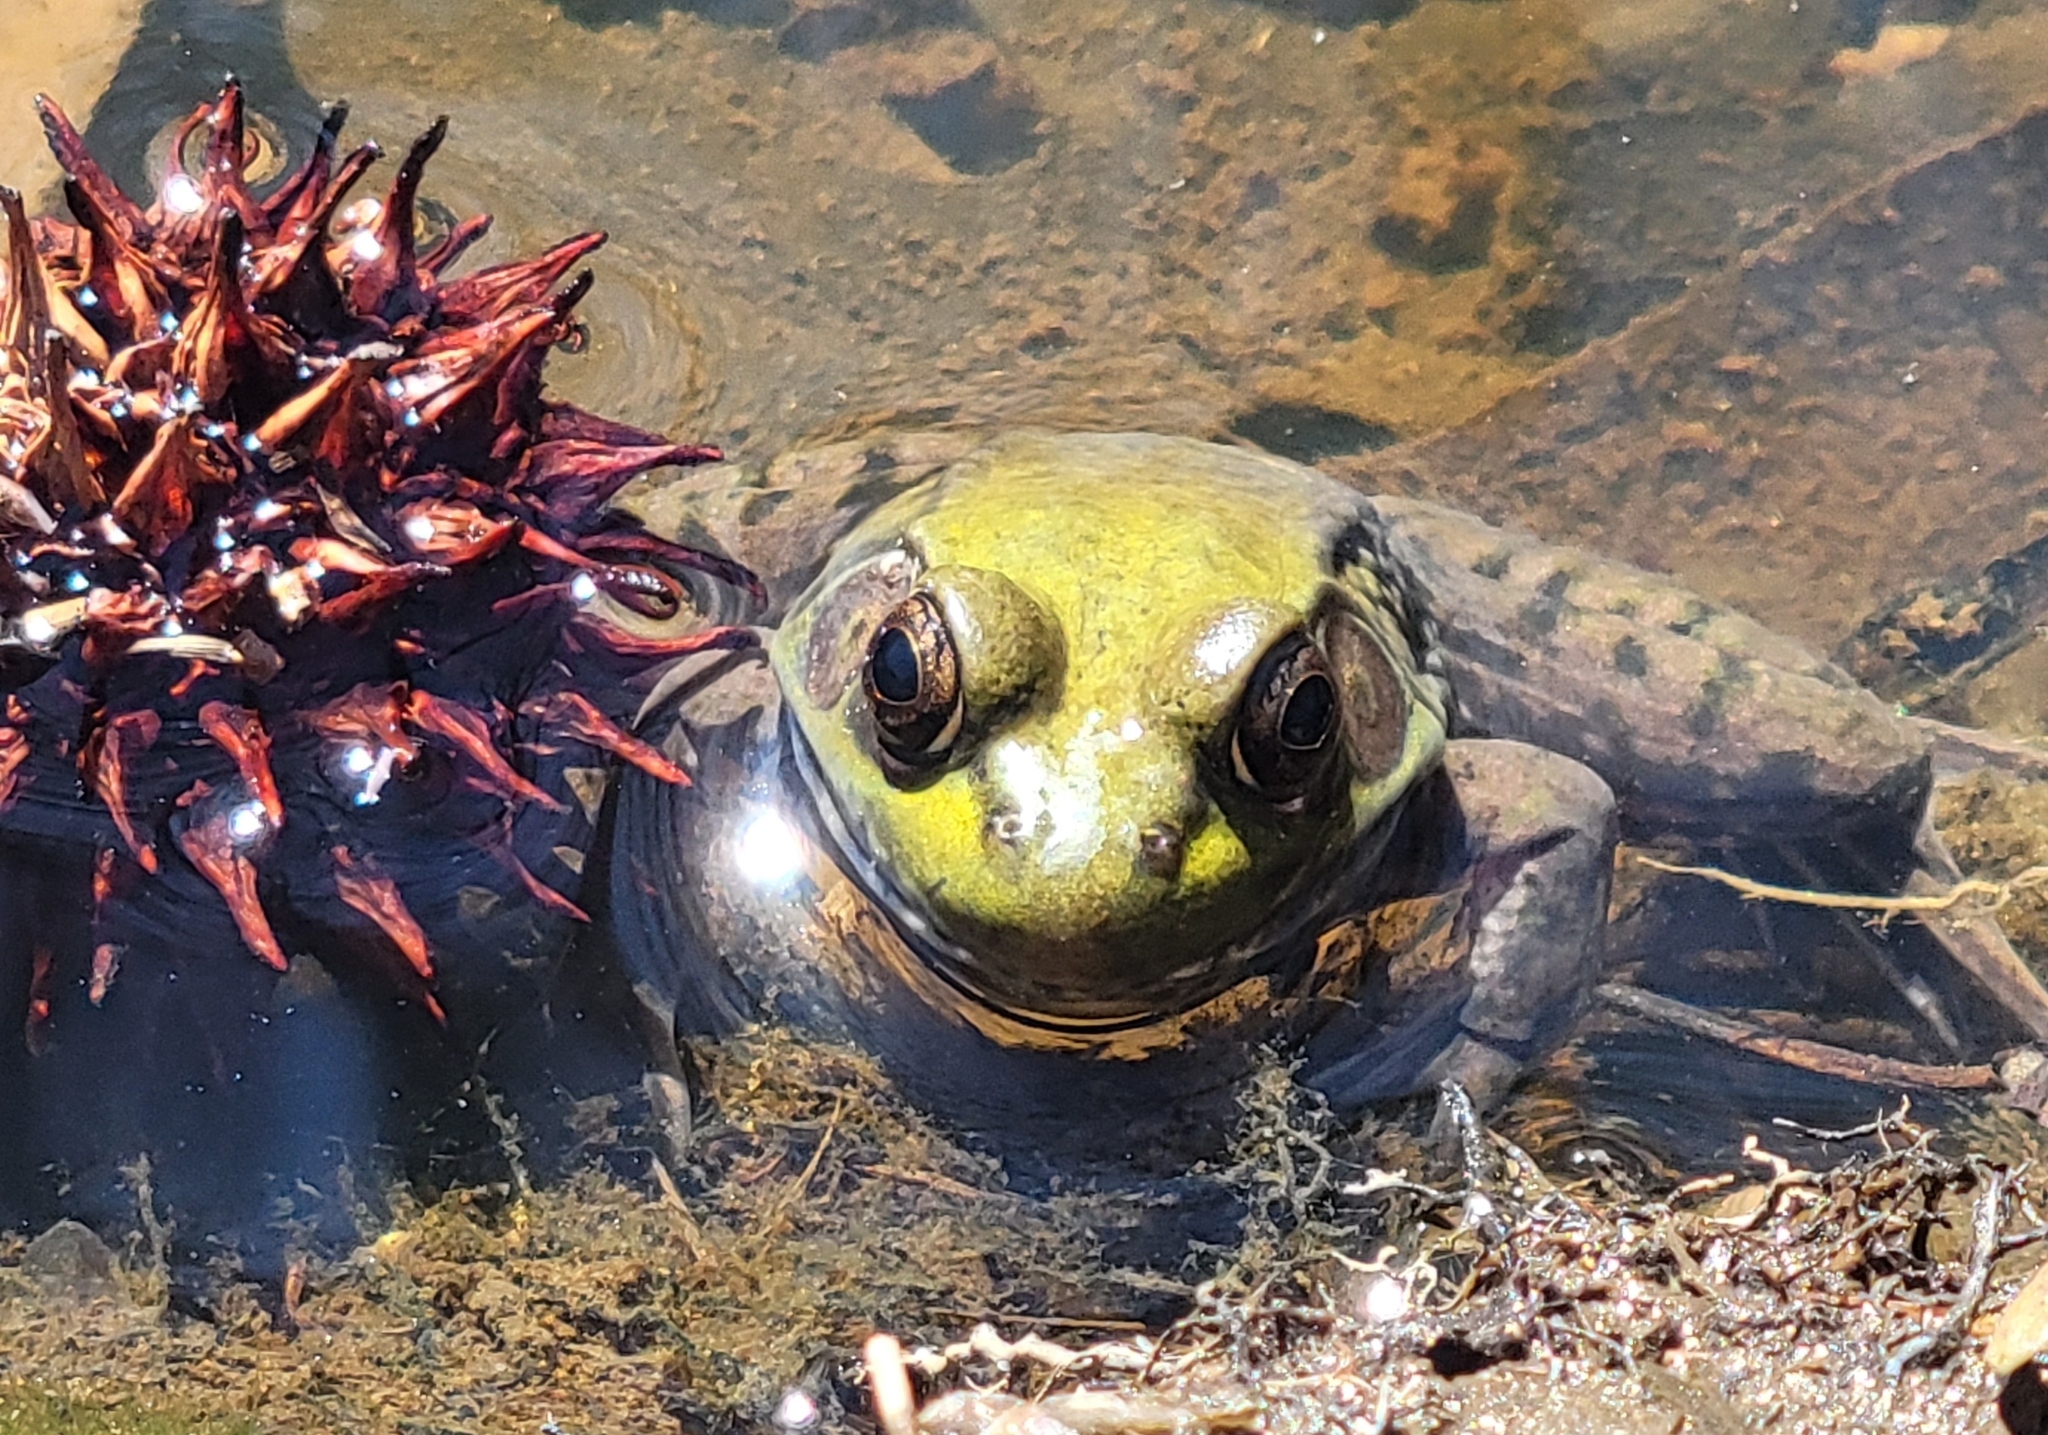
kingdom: Animalia
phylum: Chordata
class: Amphibia
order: Anura
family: Ranidae
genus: Lithobates
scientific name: Lithobates clamitans
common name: Green frog
